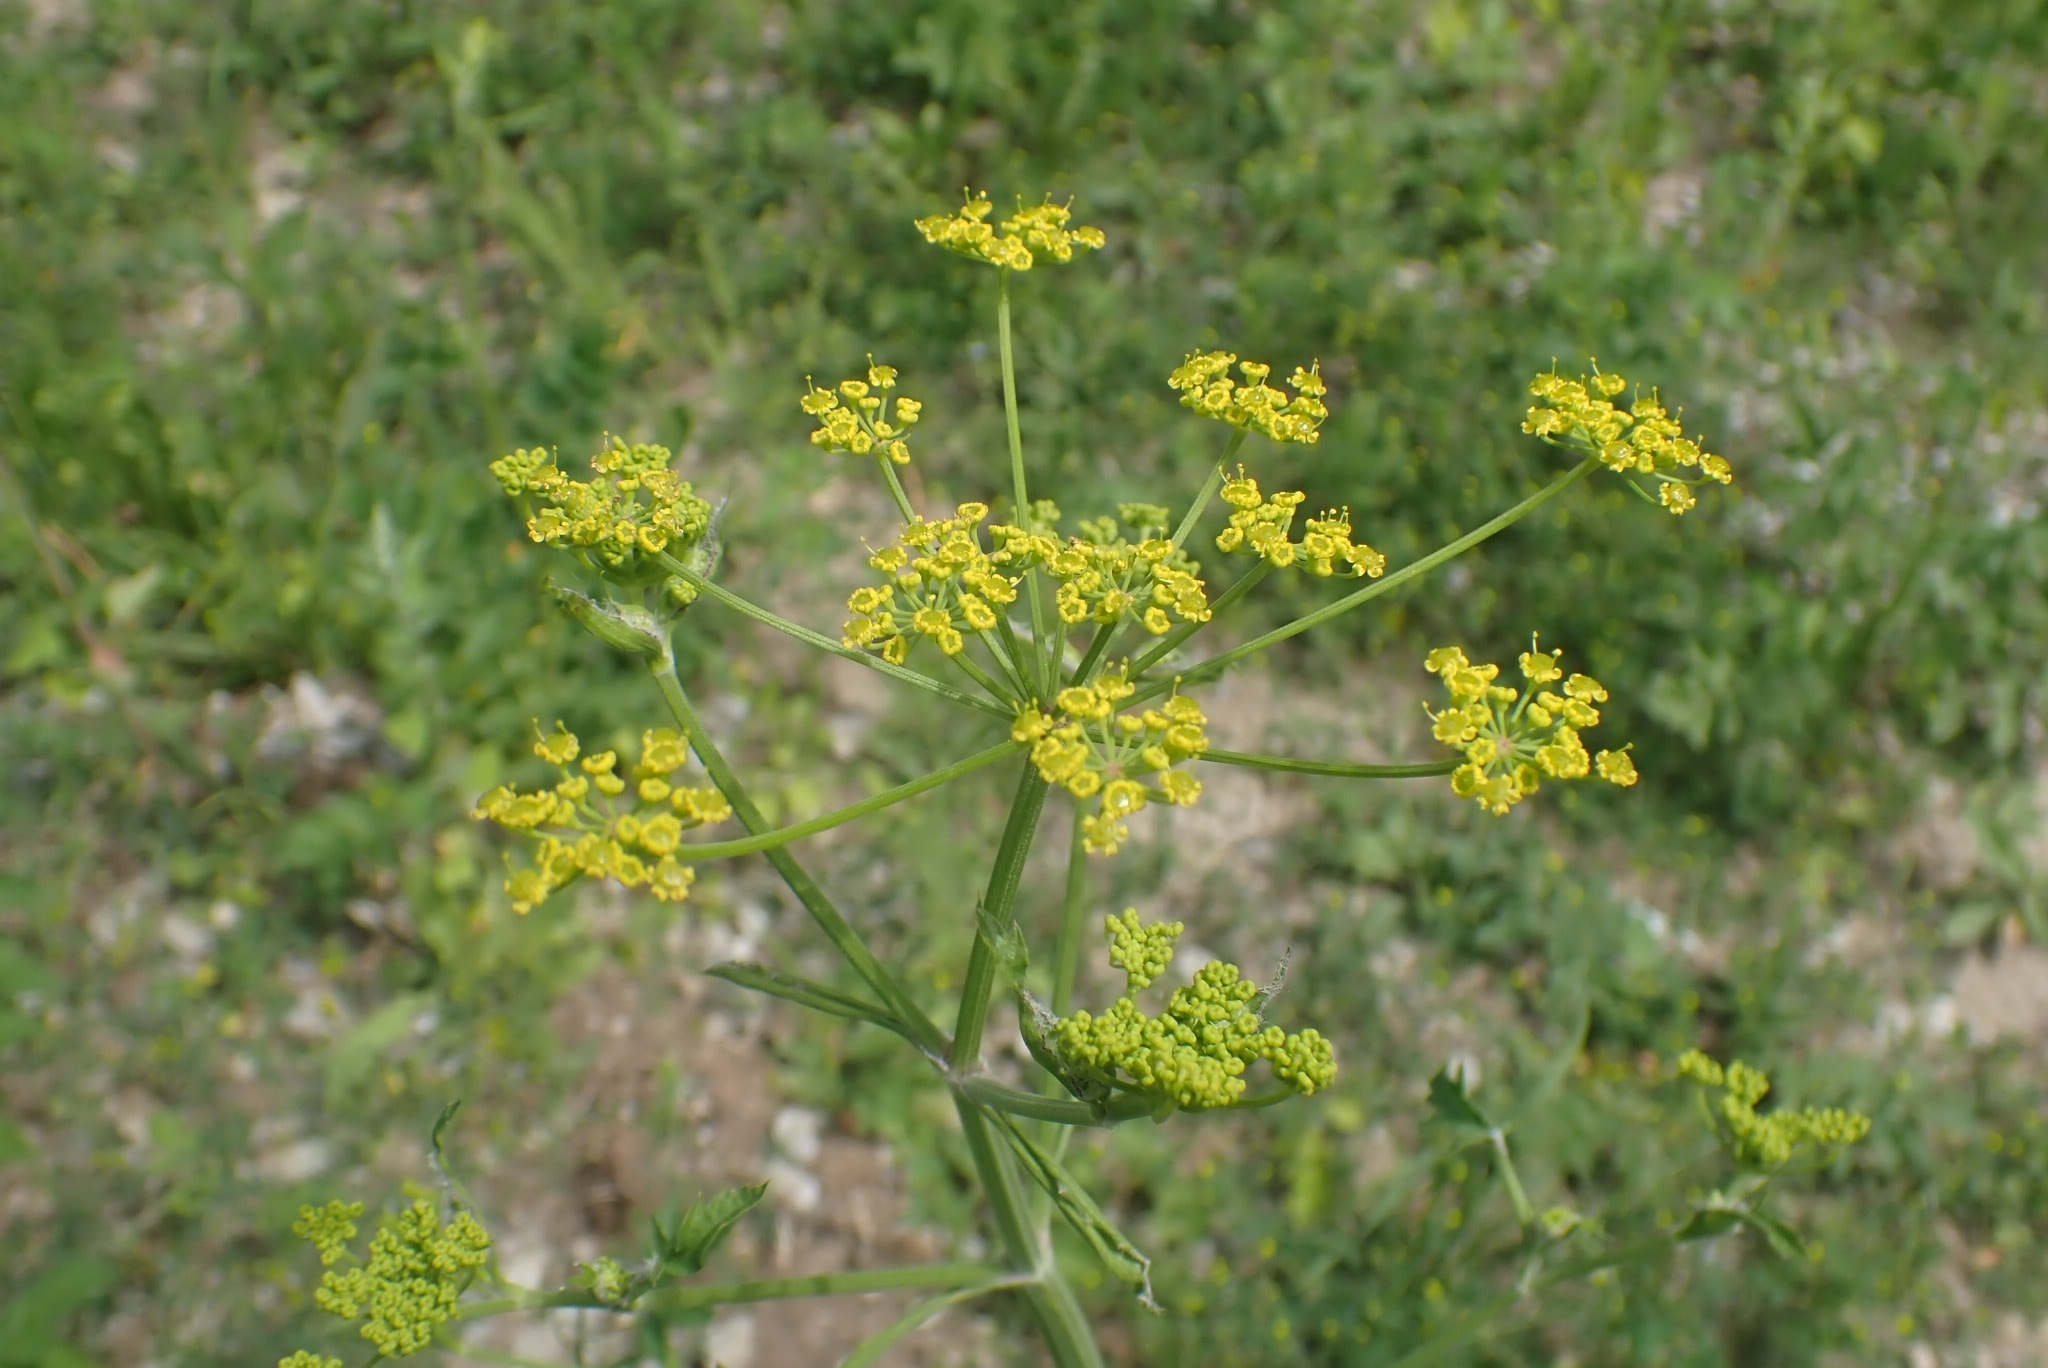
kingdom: Plantae
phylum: Tracheophyta
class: Magnoliopsida
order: Apiales
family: Apiaceae
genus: Pastinaca
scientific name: Pastinaca sativa
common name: Wild parsnip
